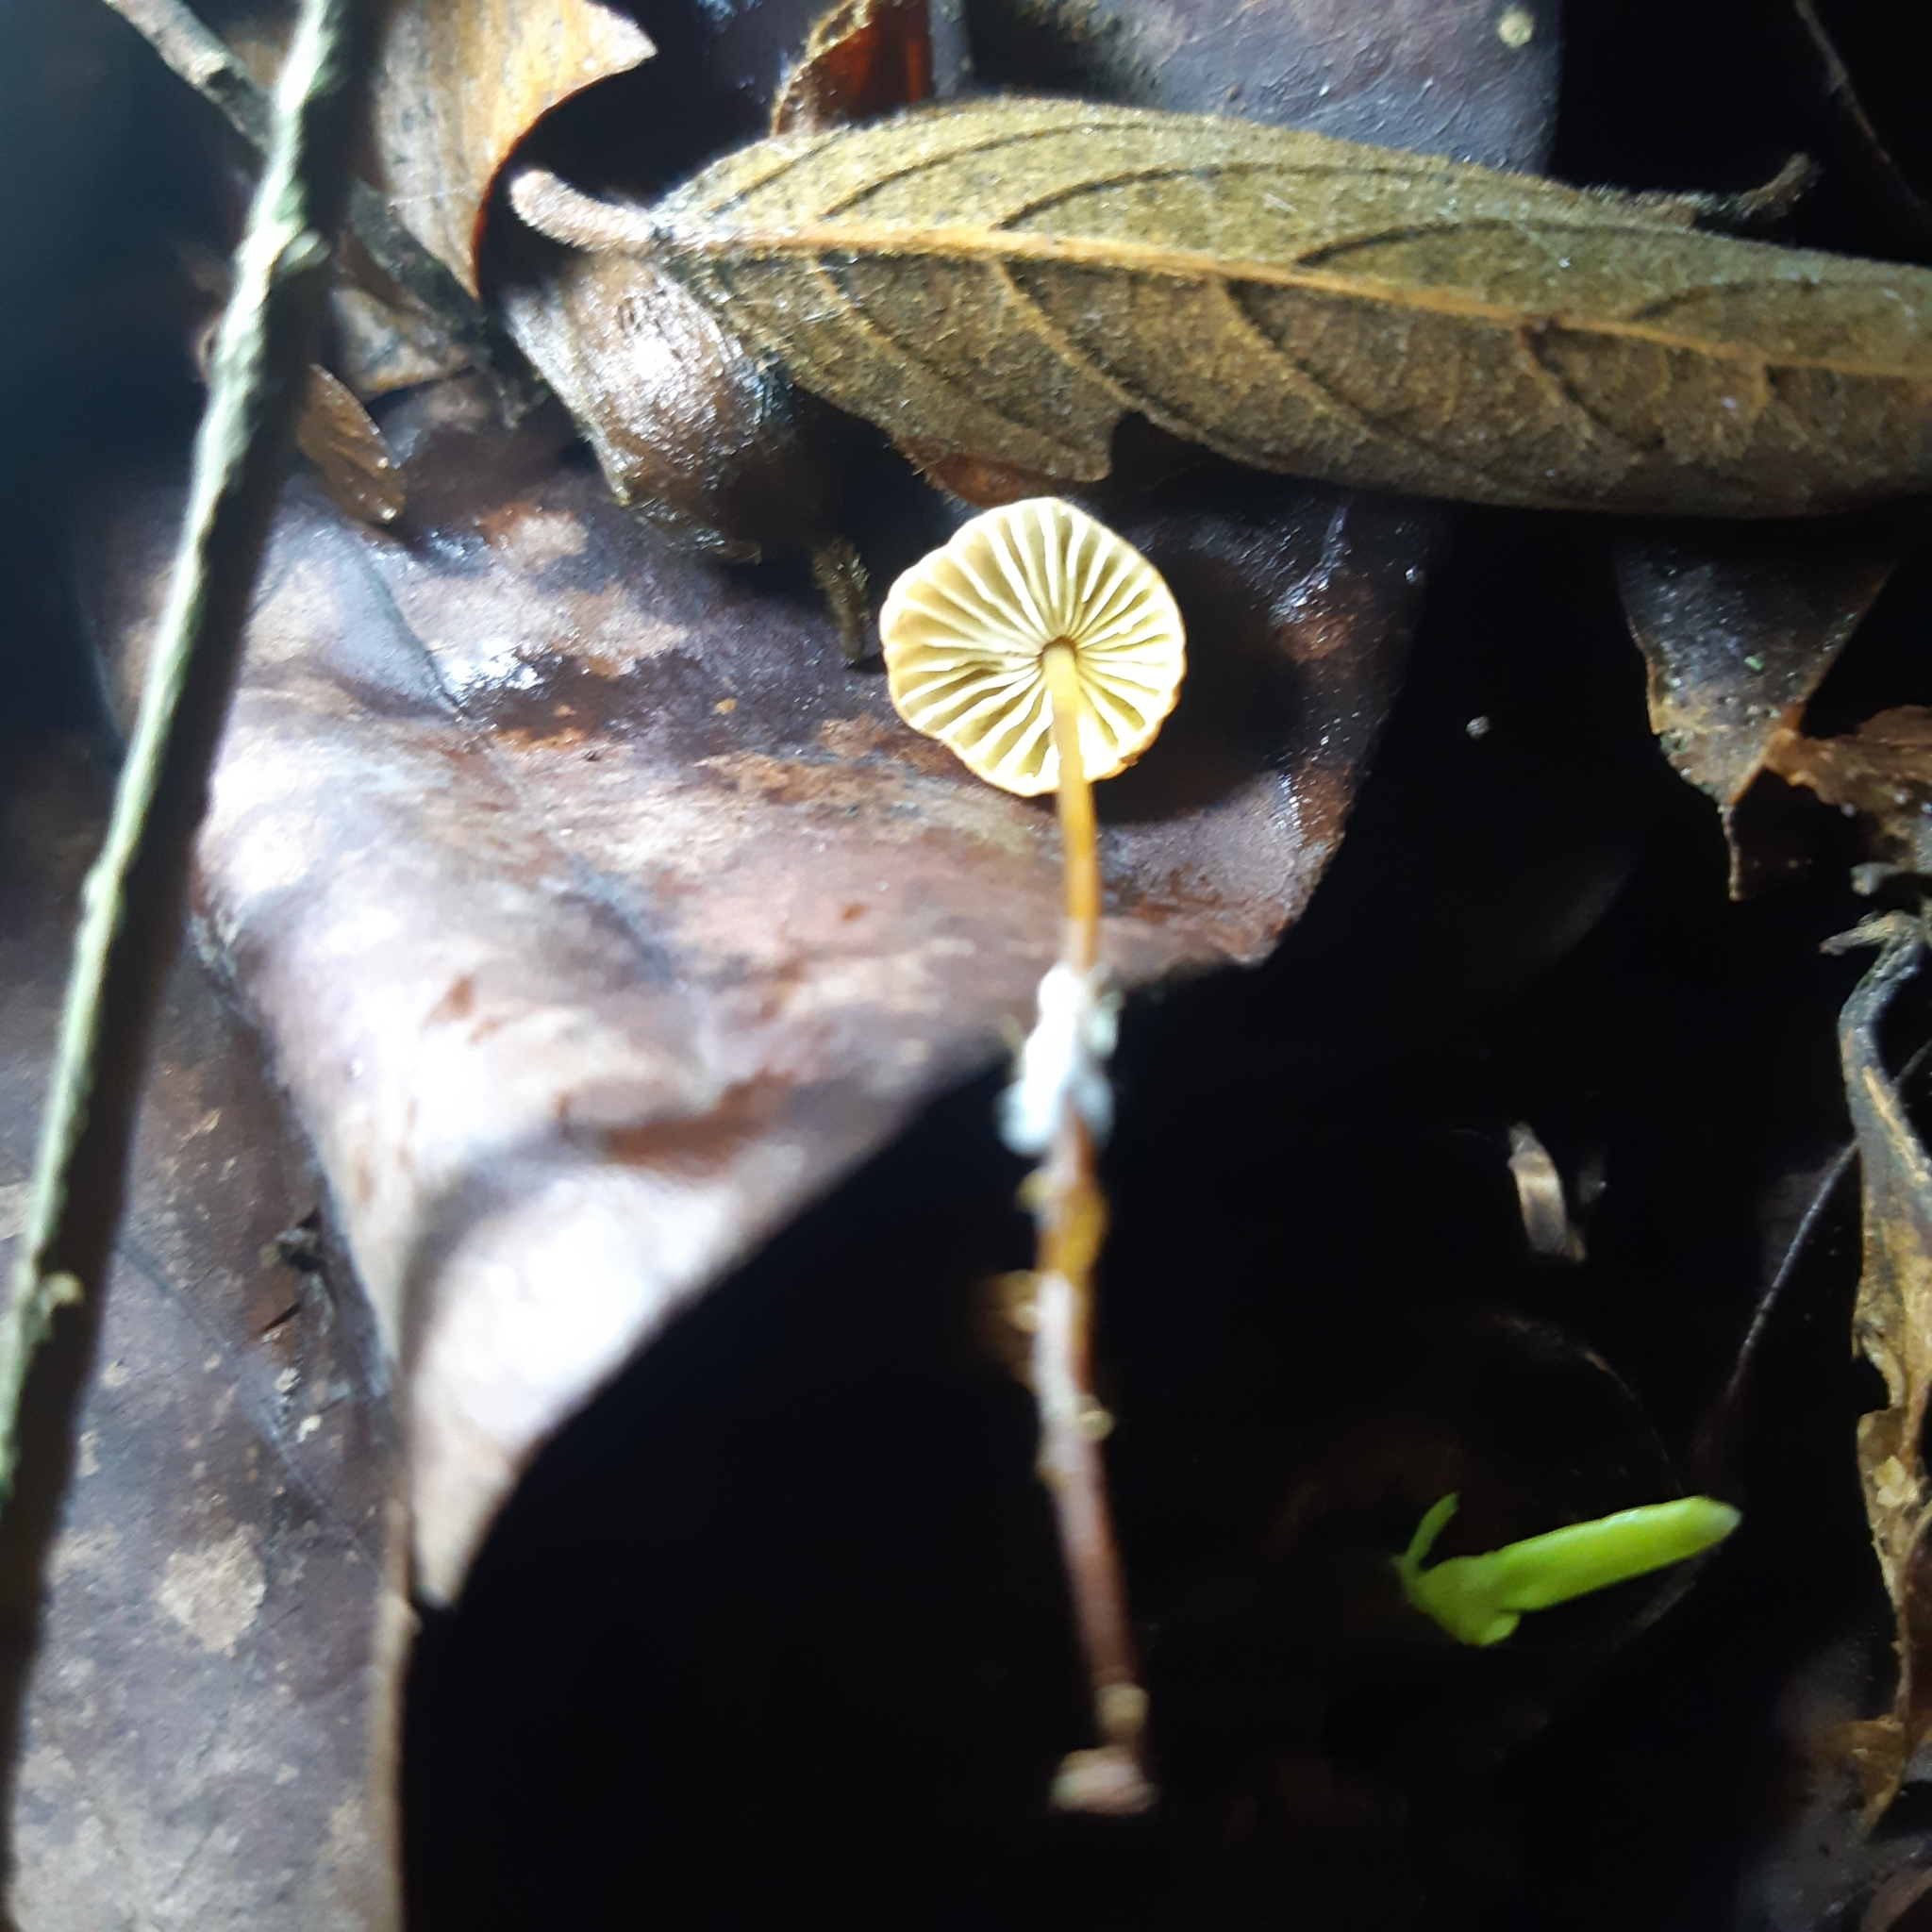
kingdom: Fungi
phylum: Basidiomycota
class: Agaricomycetes
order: Agaricales
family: Marasmiaceae
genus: Marasmius
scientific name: Marasmius siccus
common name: Orange pinwheel
